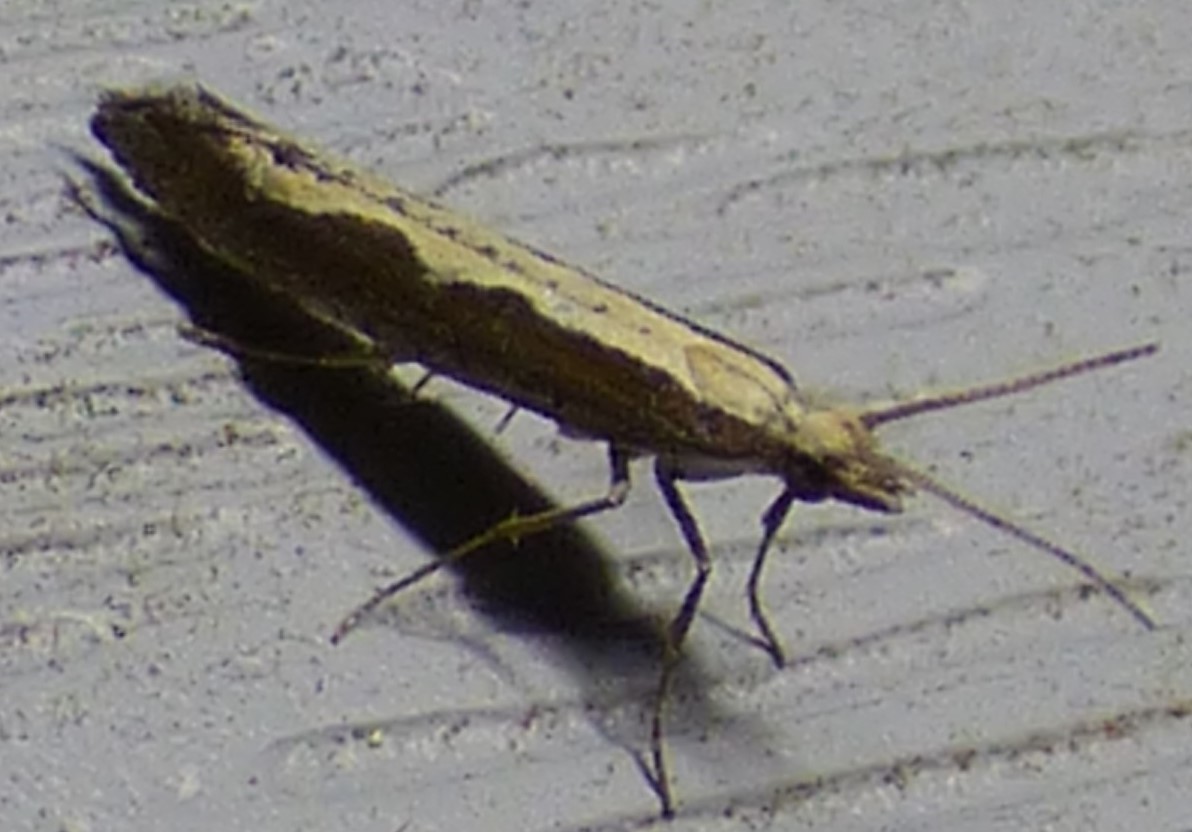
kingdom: Animalia
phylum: Arthropoda
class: Insecta
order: Lepidoptera
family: Plutellidae
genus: Plutella
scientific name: Plutella xylostella
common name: Diamond-back moth
